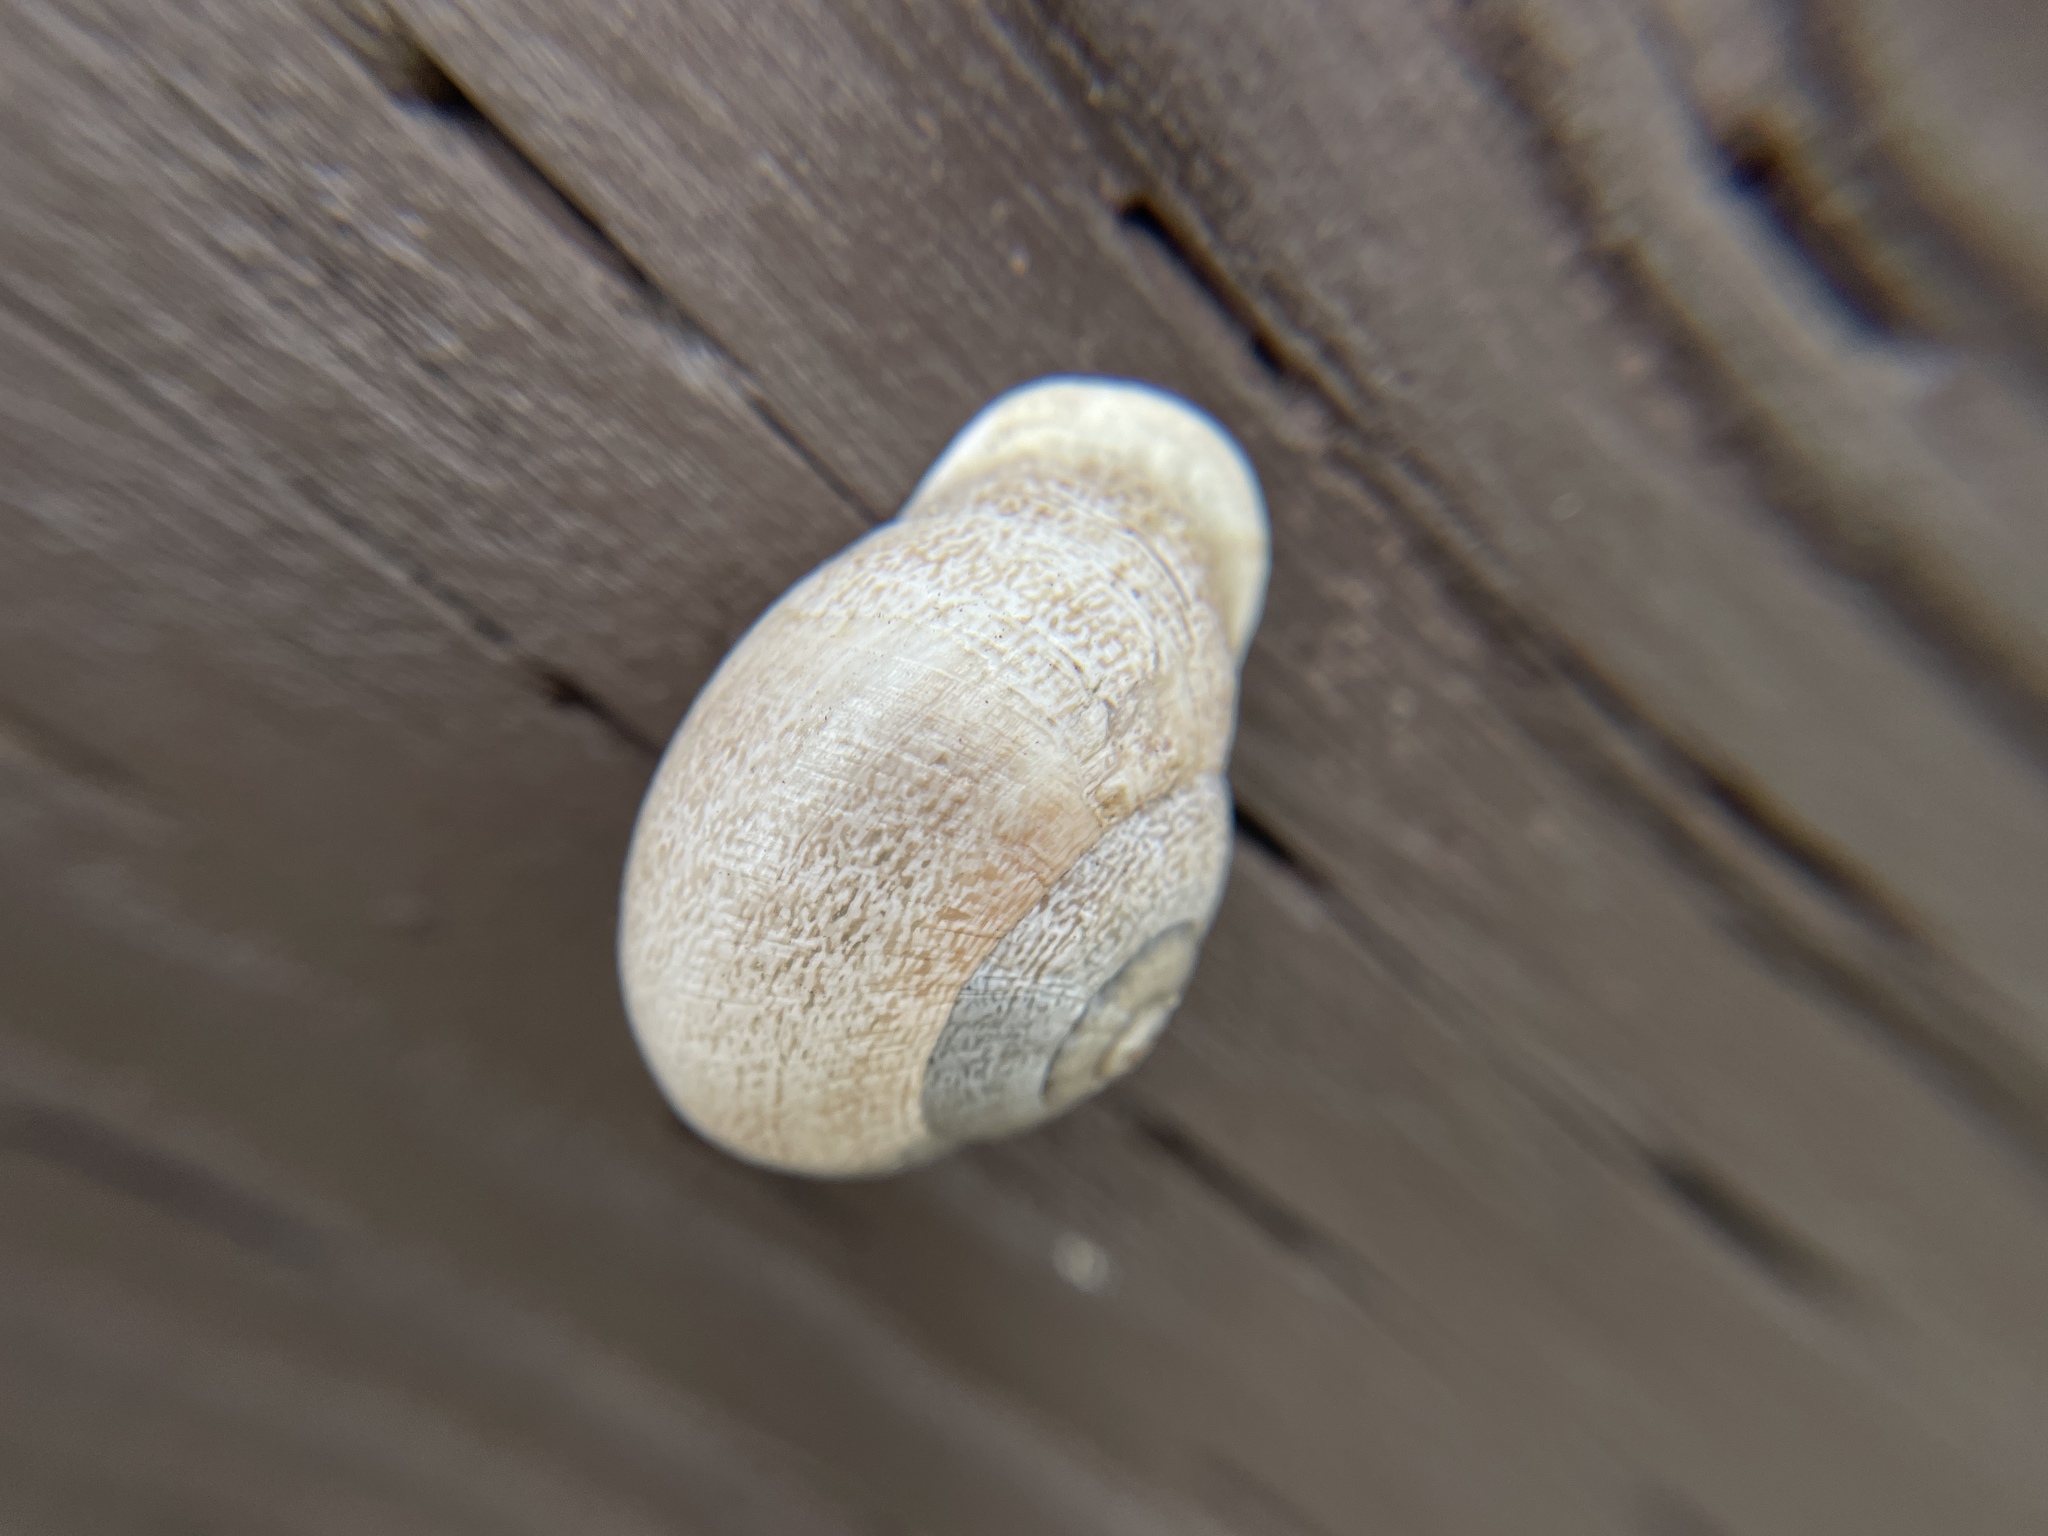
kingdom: Animalia
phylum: Mollusca
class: Gastropoda
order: Stylommatophora
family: Helicidae
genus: Otala
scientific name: Otala lactea
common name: Milk snail
